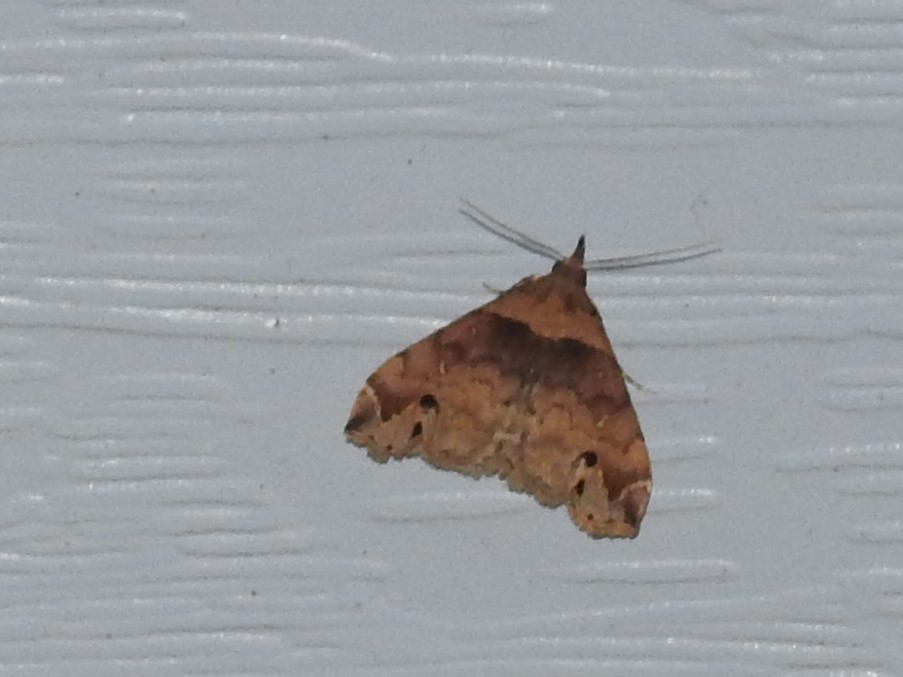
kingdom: Animalia
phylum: Arthropoda
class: Insecta
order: Lepidoptera
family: Erebidae
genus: Lascoria
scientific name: Lascoria ambigualis
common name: Ambiguous moth
